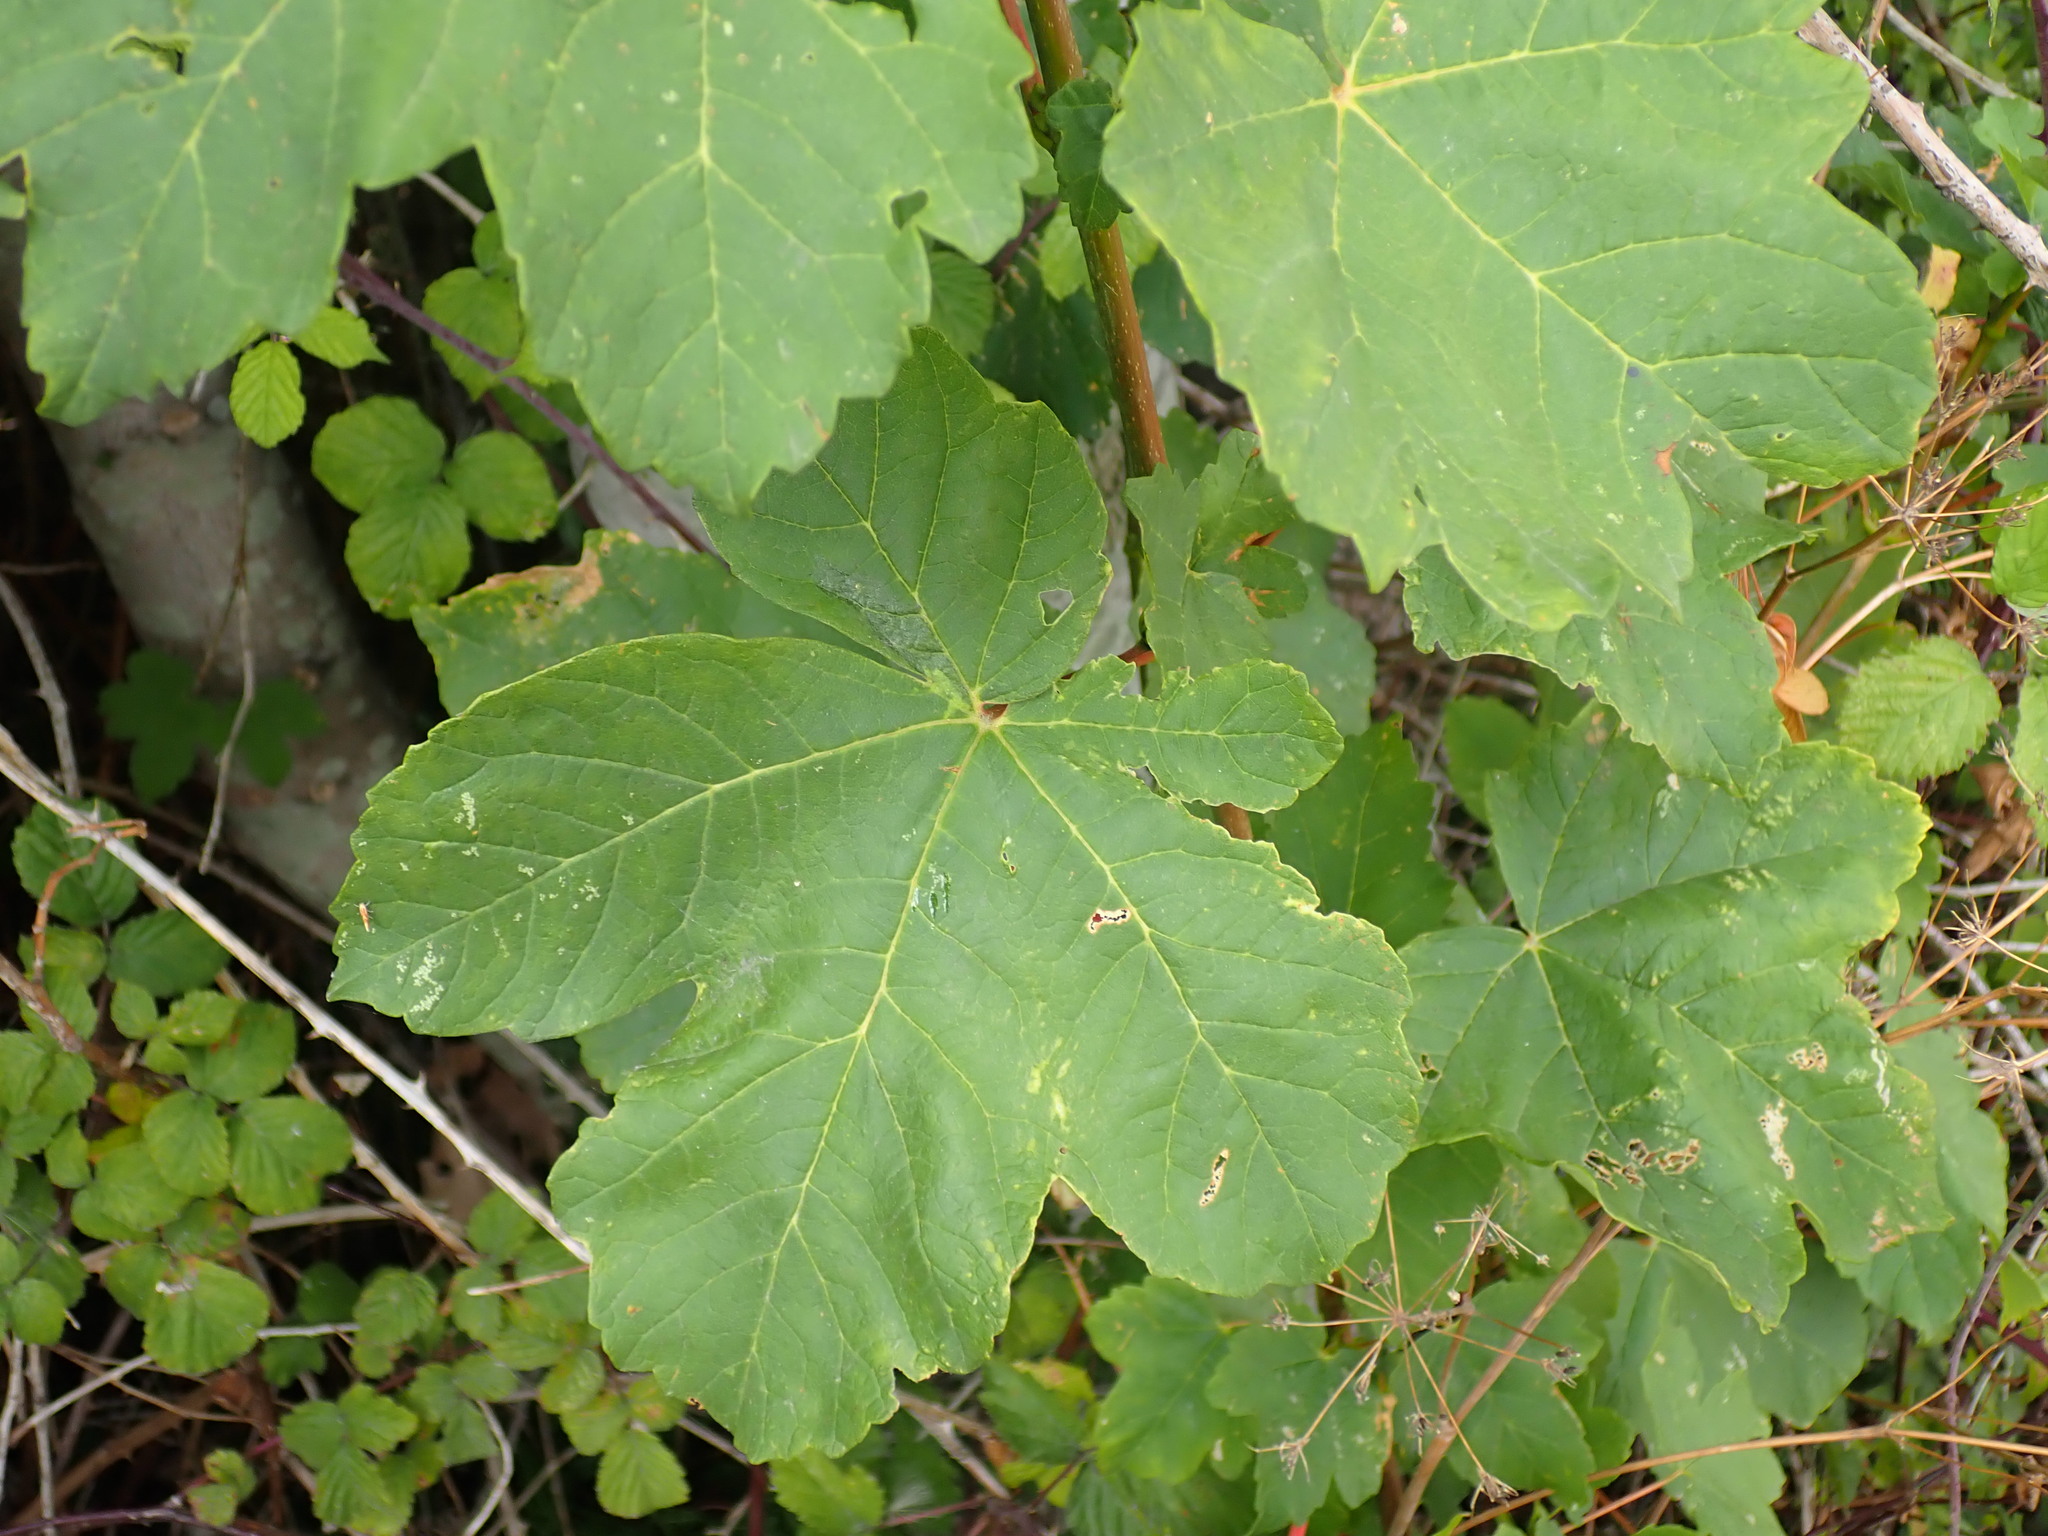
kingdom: Plantae
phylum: Tracheophyta
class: Magnoliopsida
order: Sapindales
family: Sapindaceae
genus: Acer
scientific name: Acer pseudoplatanus
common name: Sycamore
